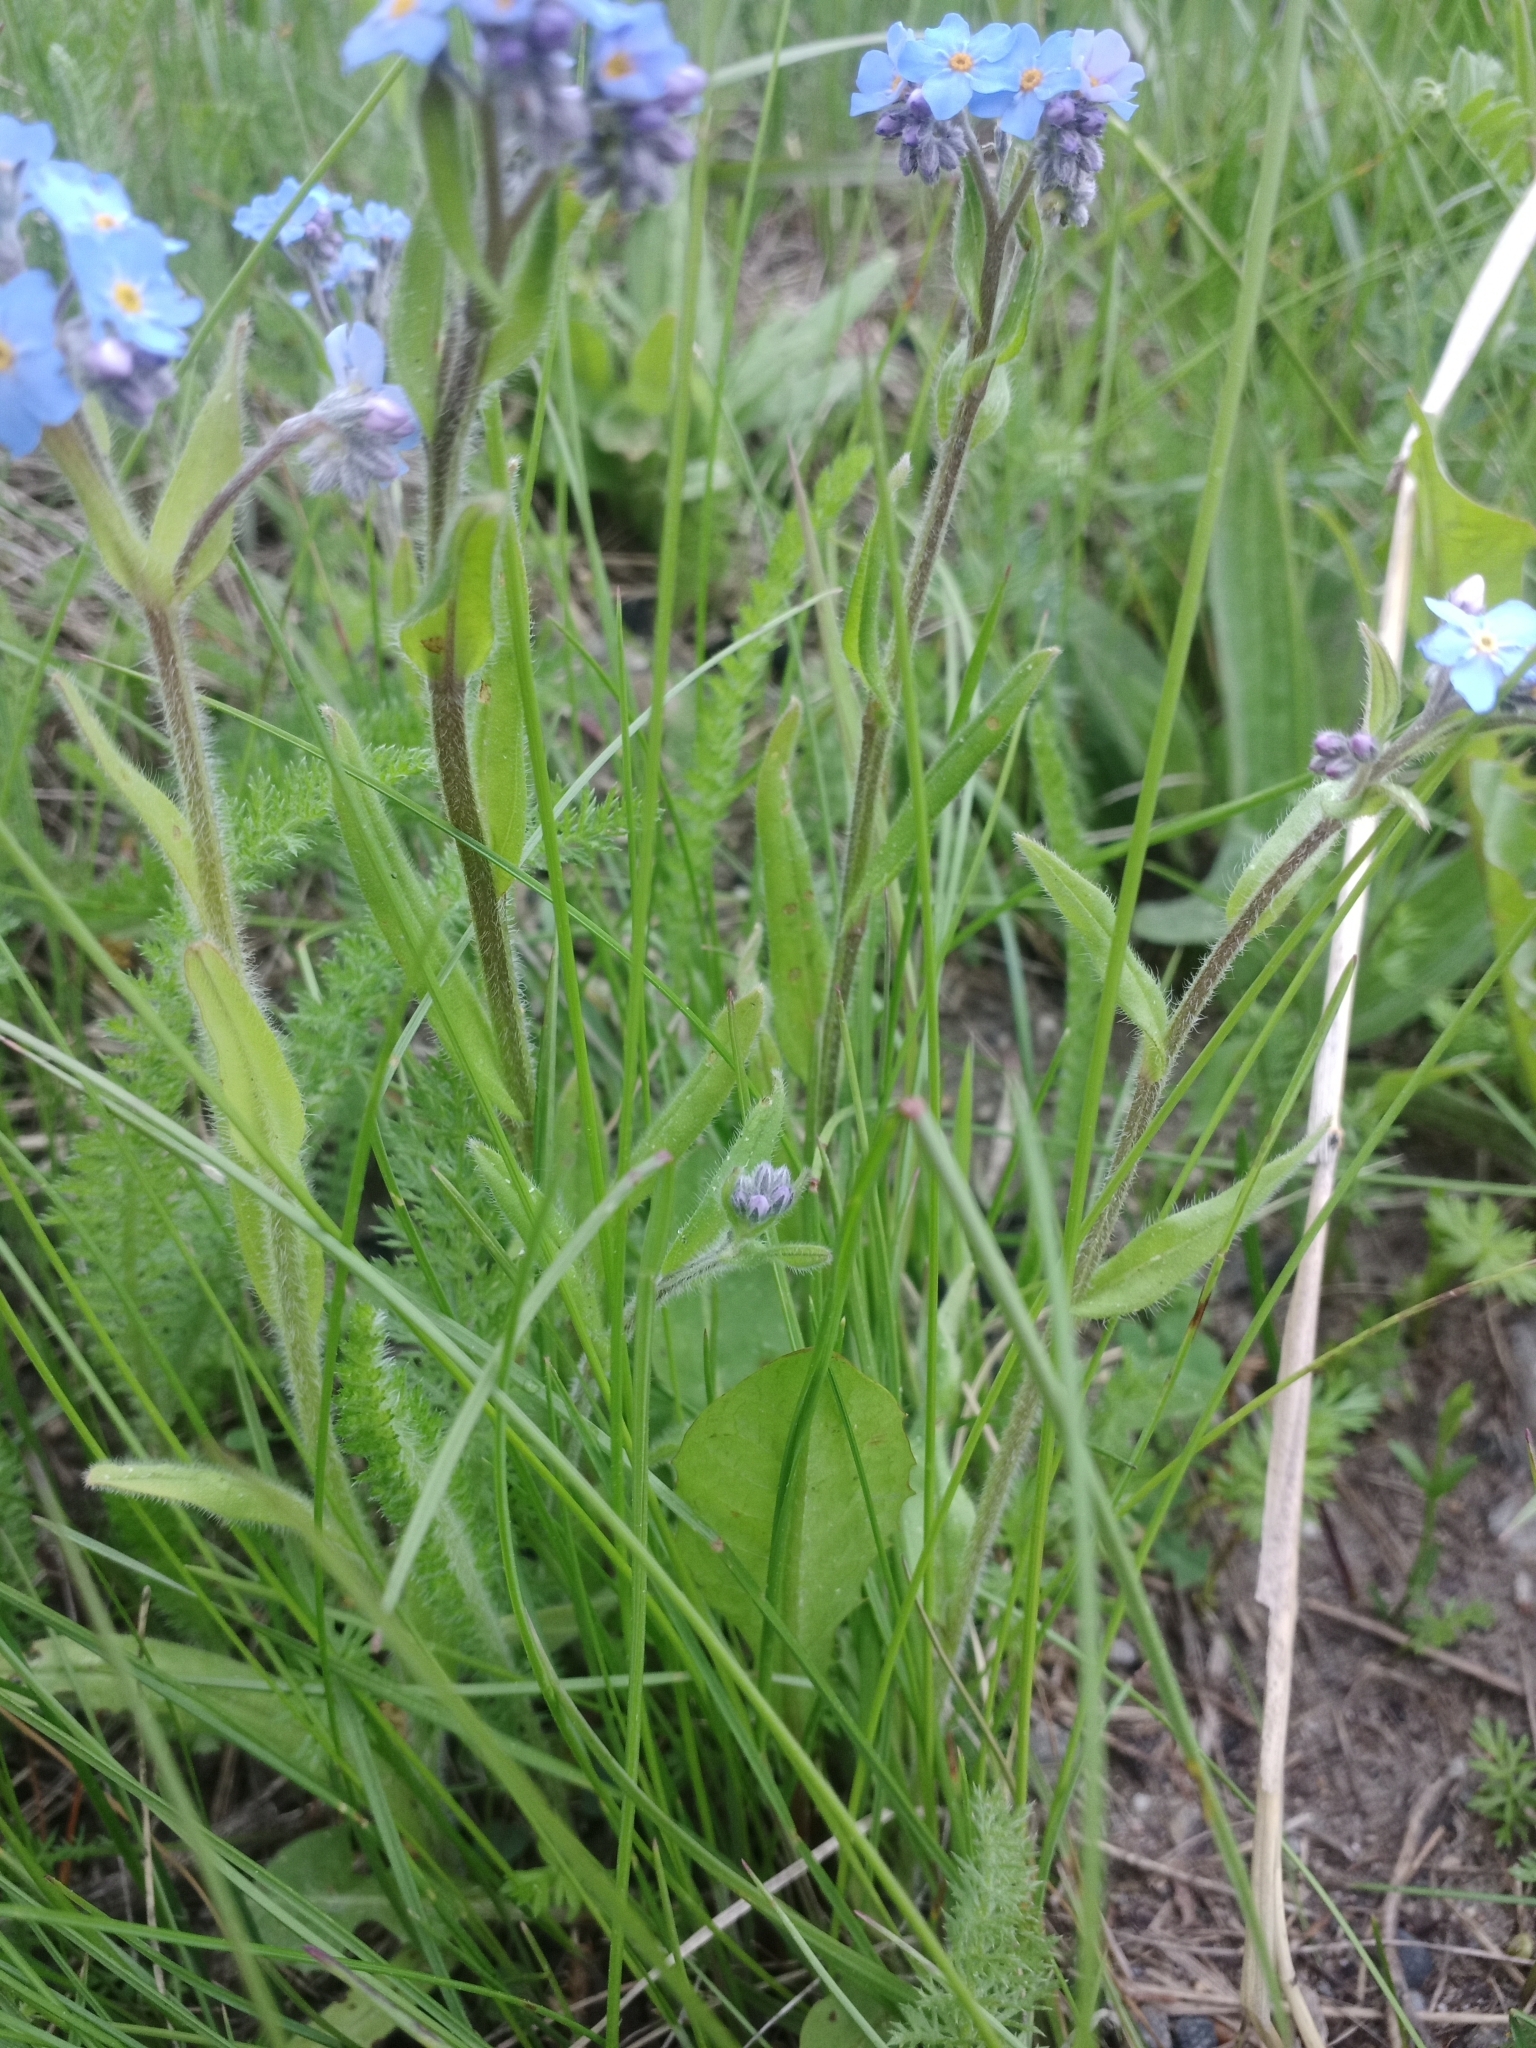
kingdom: Plantae
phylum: Tracheophyta
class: Magnoliopsida
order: Boraginales
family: Boraginaceae
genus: Myosotis
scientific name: Myosotis imitata
